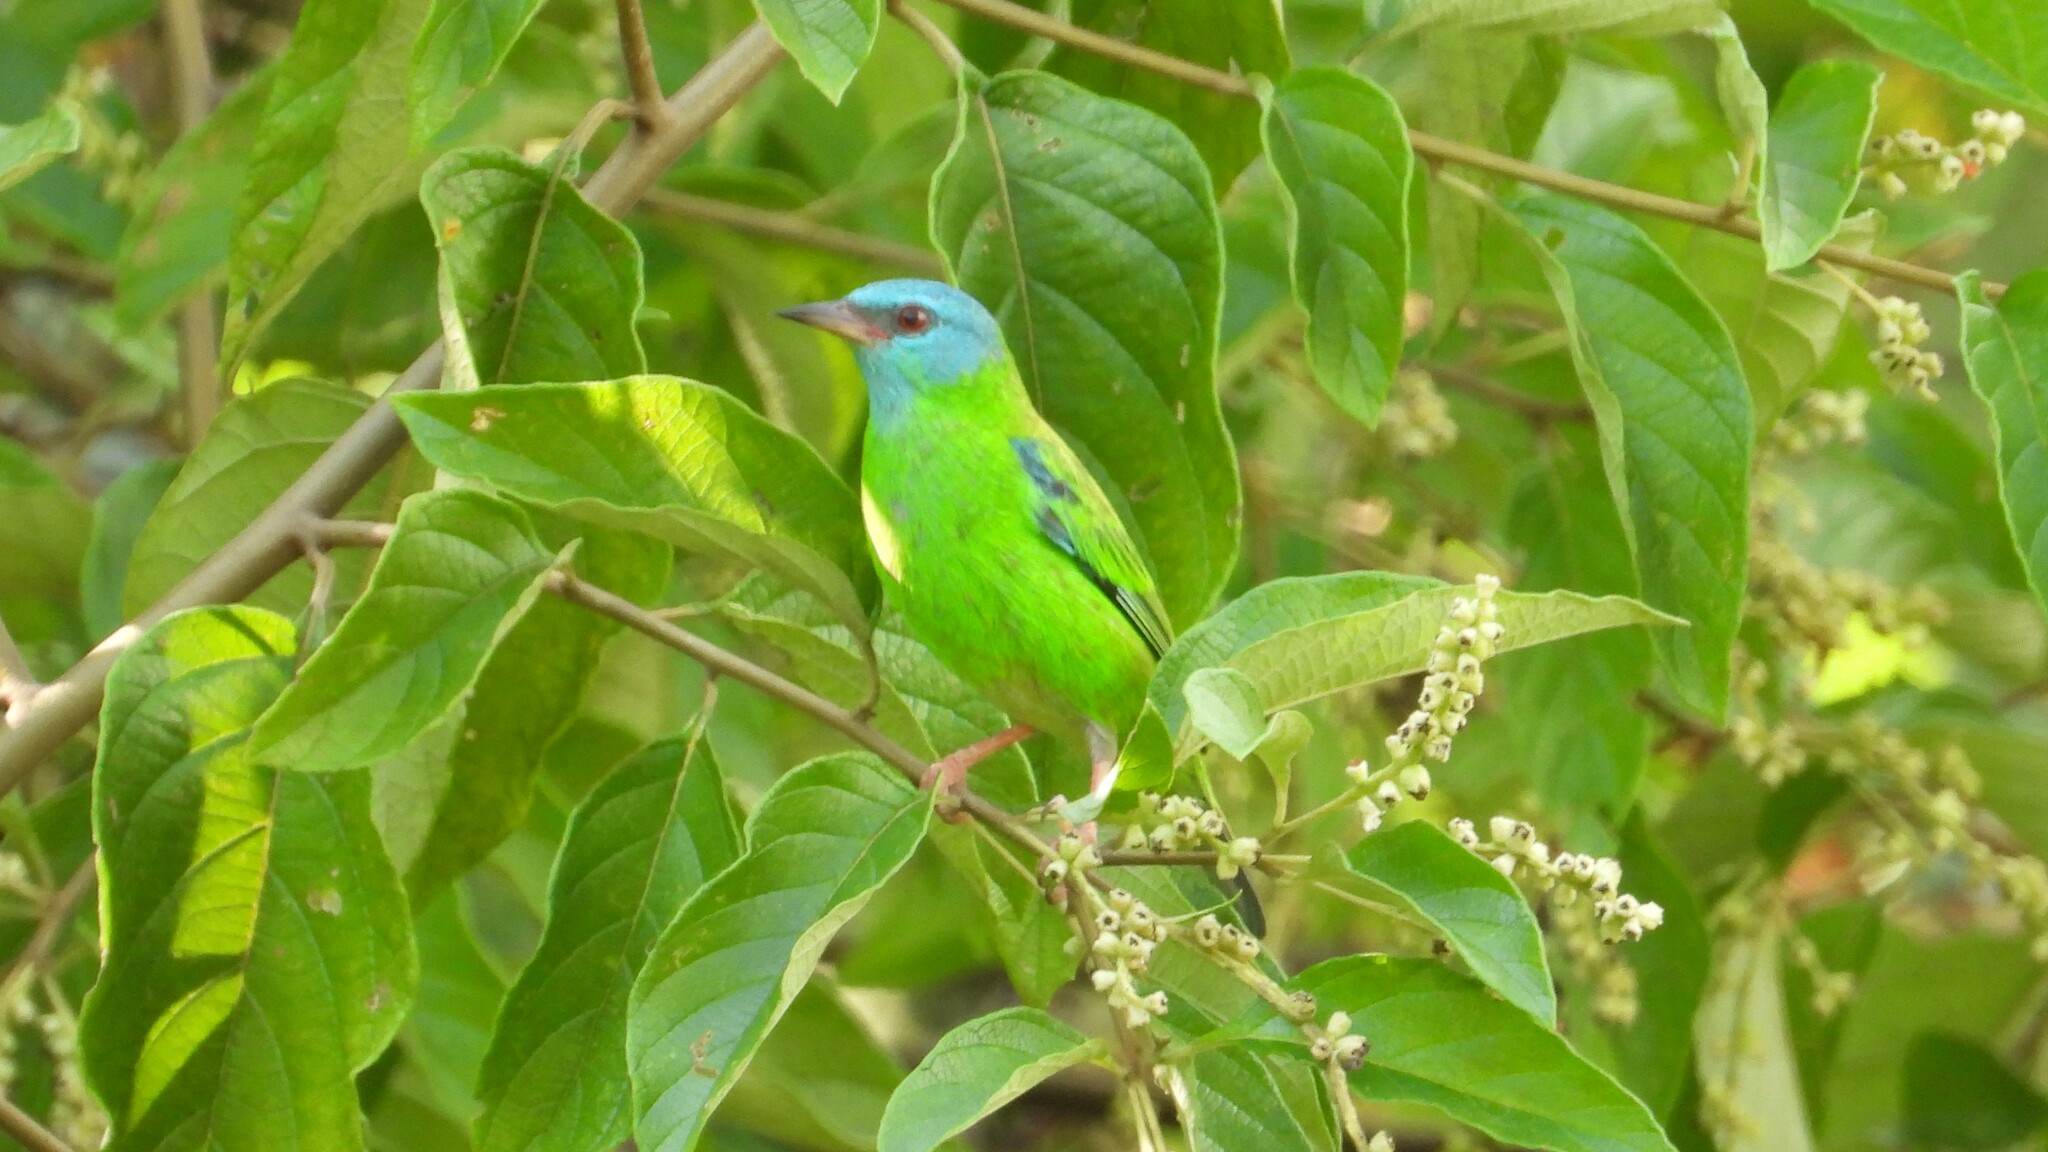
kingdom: Animalia
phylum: Chordata
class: Aves
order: Passeriformes
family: Thraupidae
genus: Dacnis
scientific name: Dacnis cayana
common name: Blue dacnis
